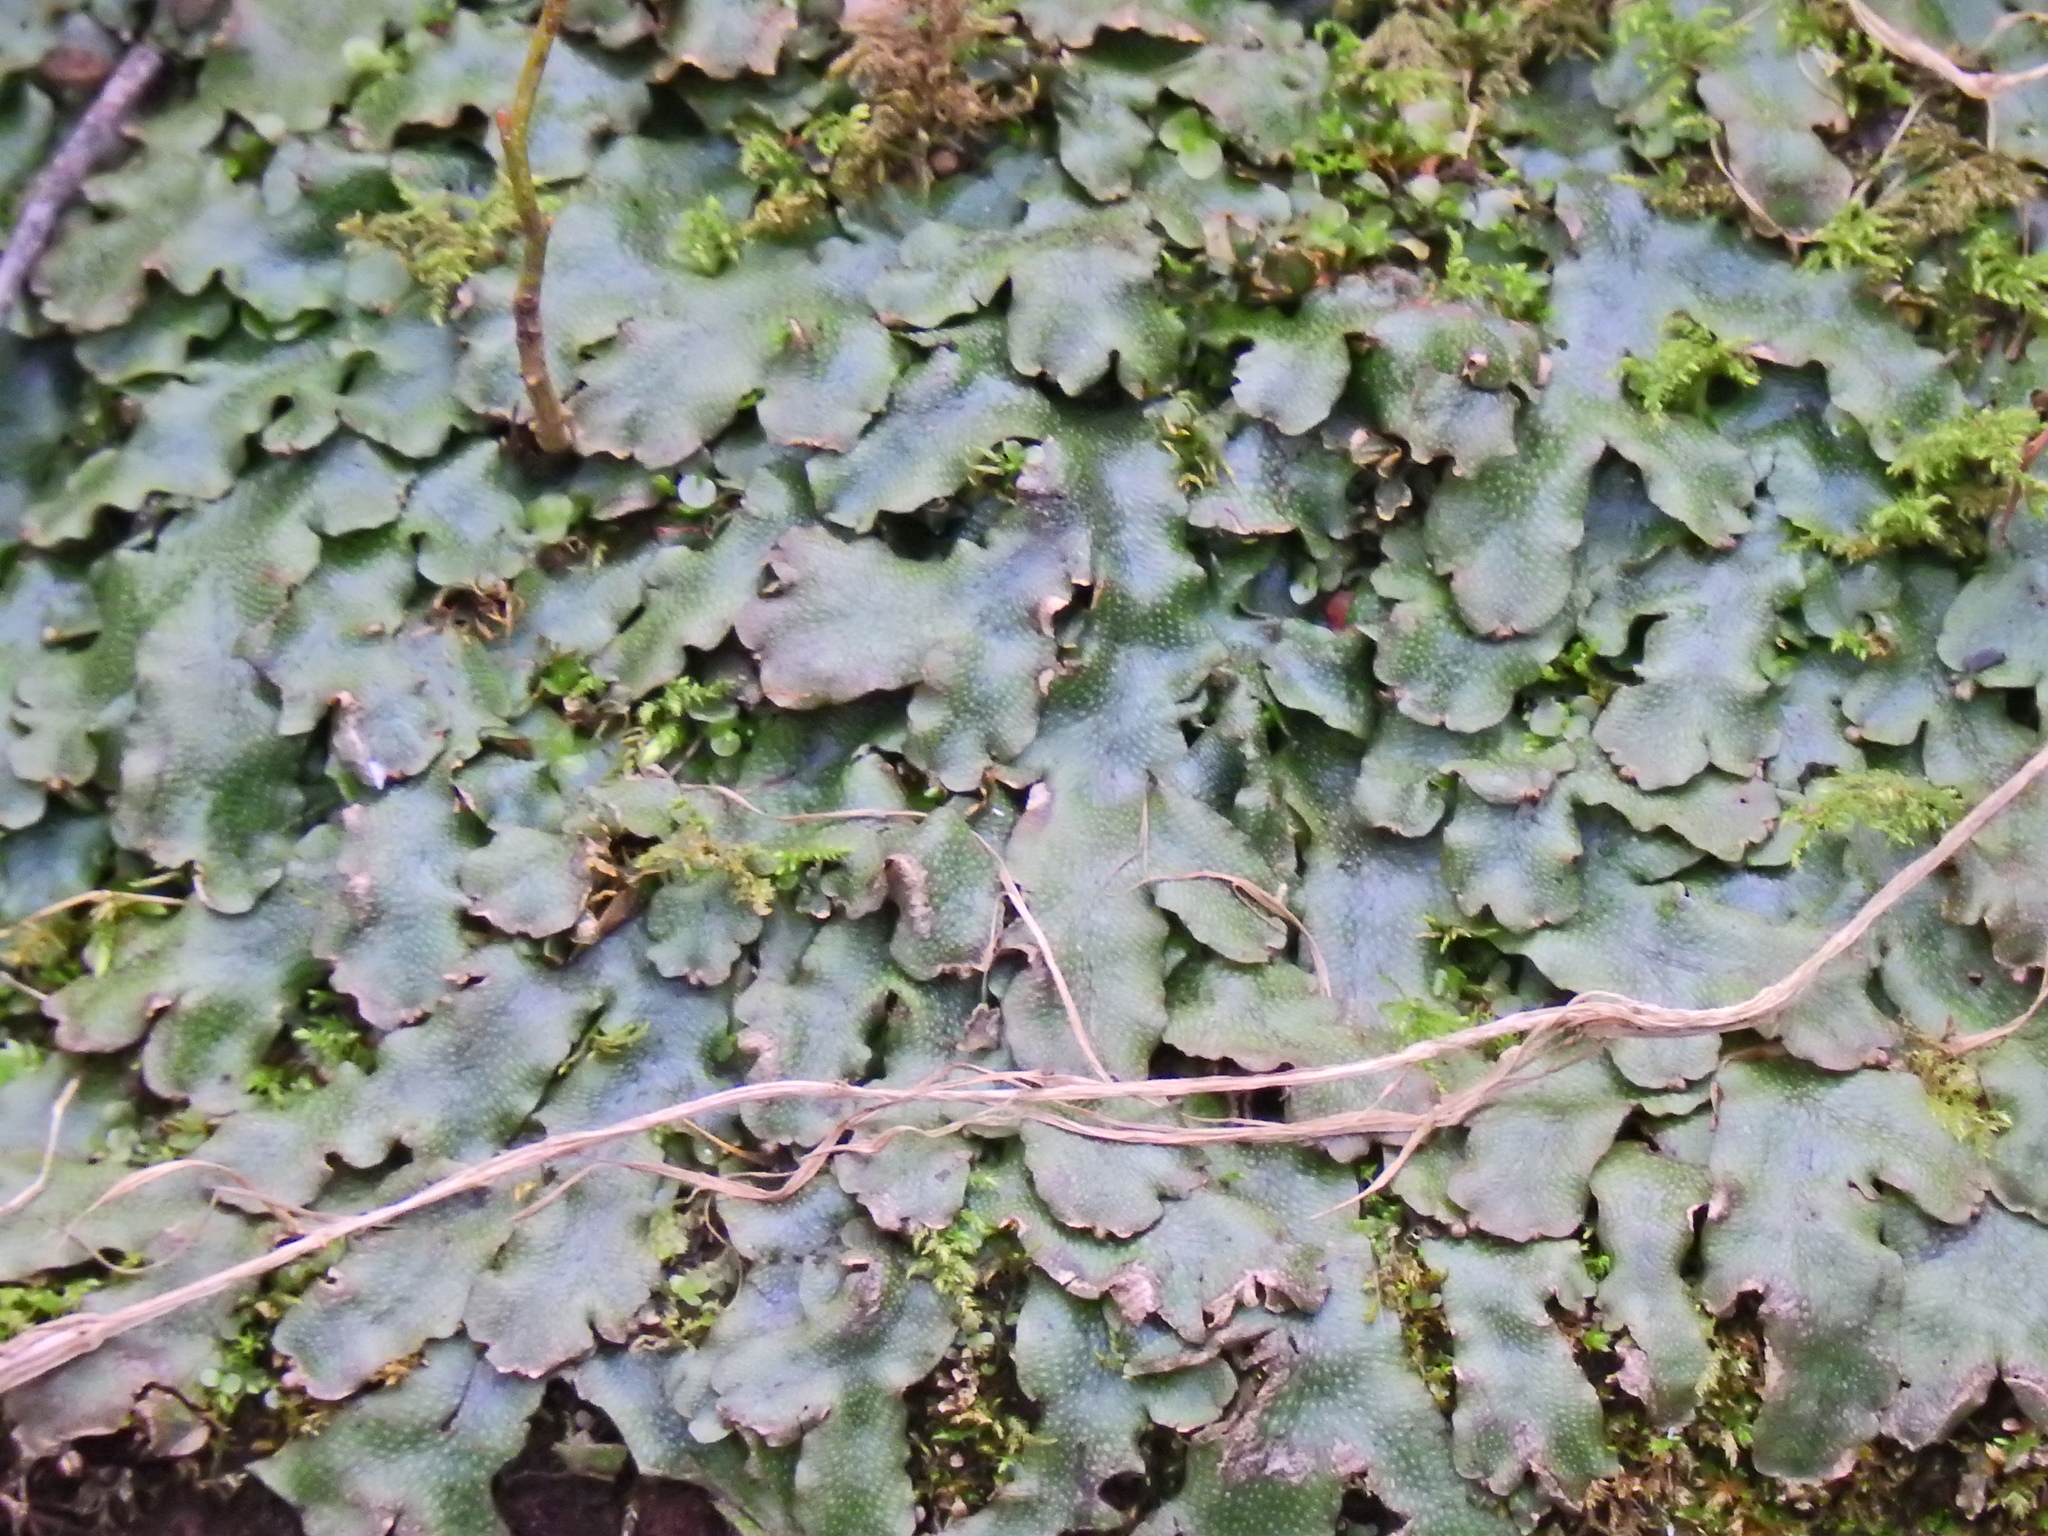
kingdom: Plantae
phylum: Marchantiophyta
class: Marchantiopsida
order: Marchantiales
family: Conocephalaceae
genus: Conocephalum
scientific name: Conocephalum conicum
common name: Great scented liverwort
